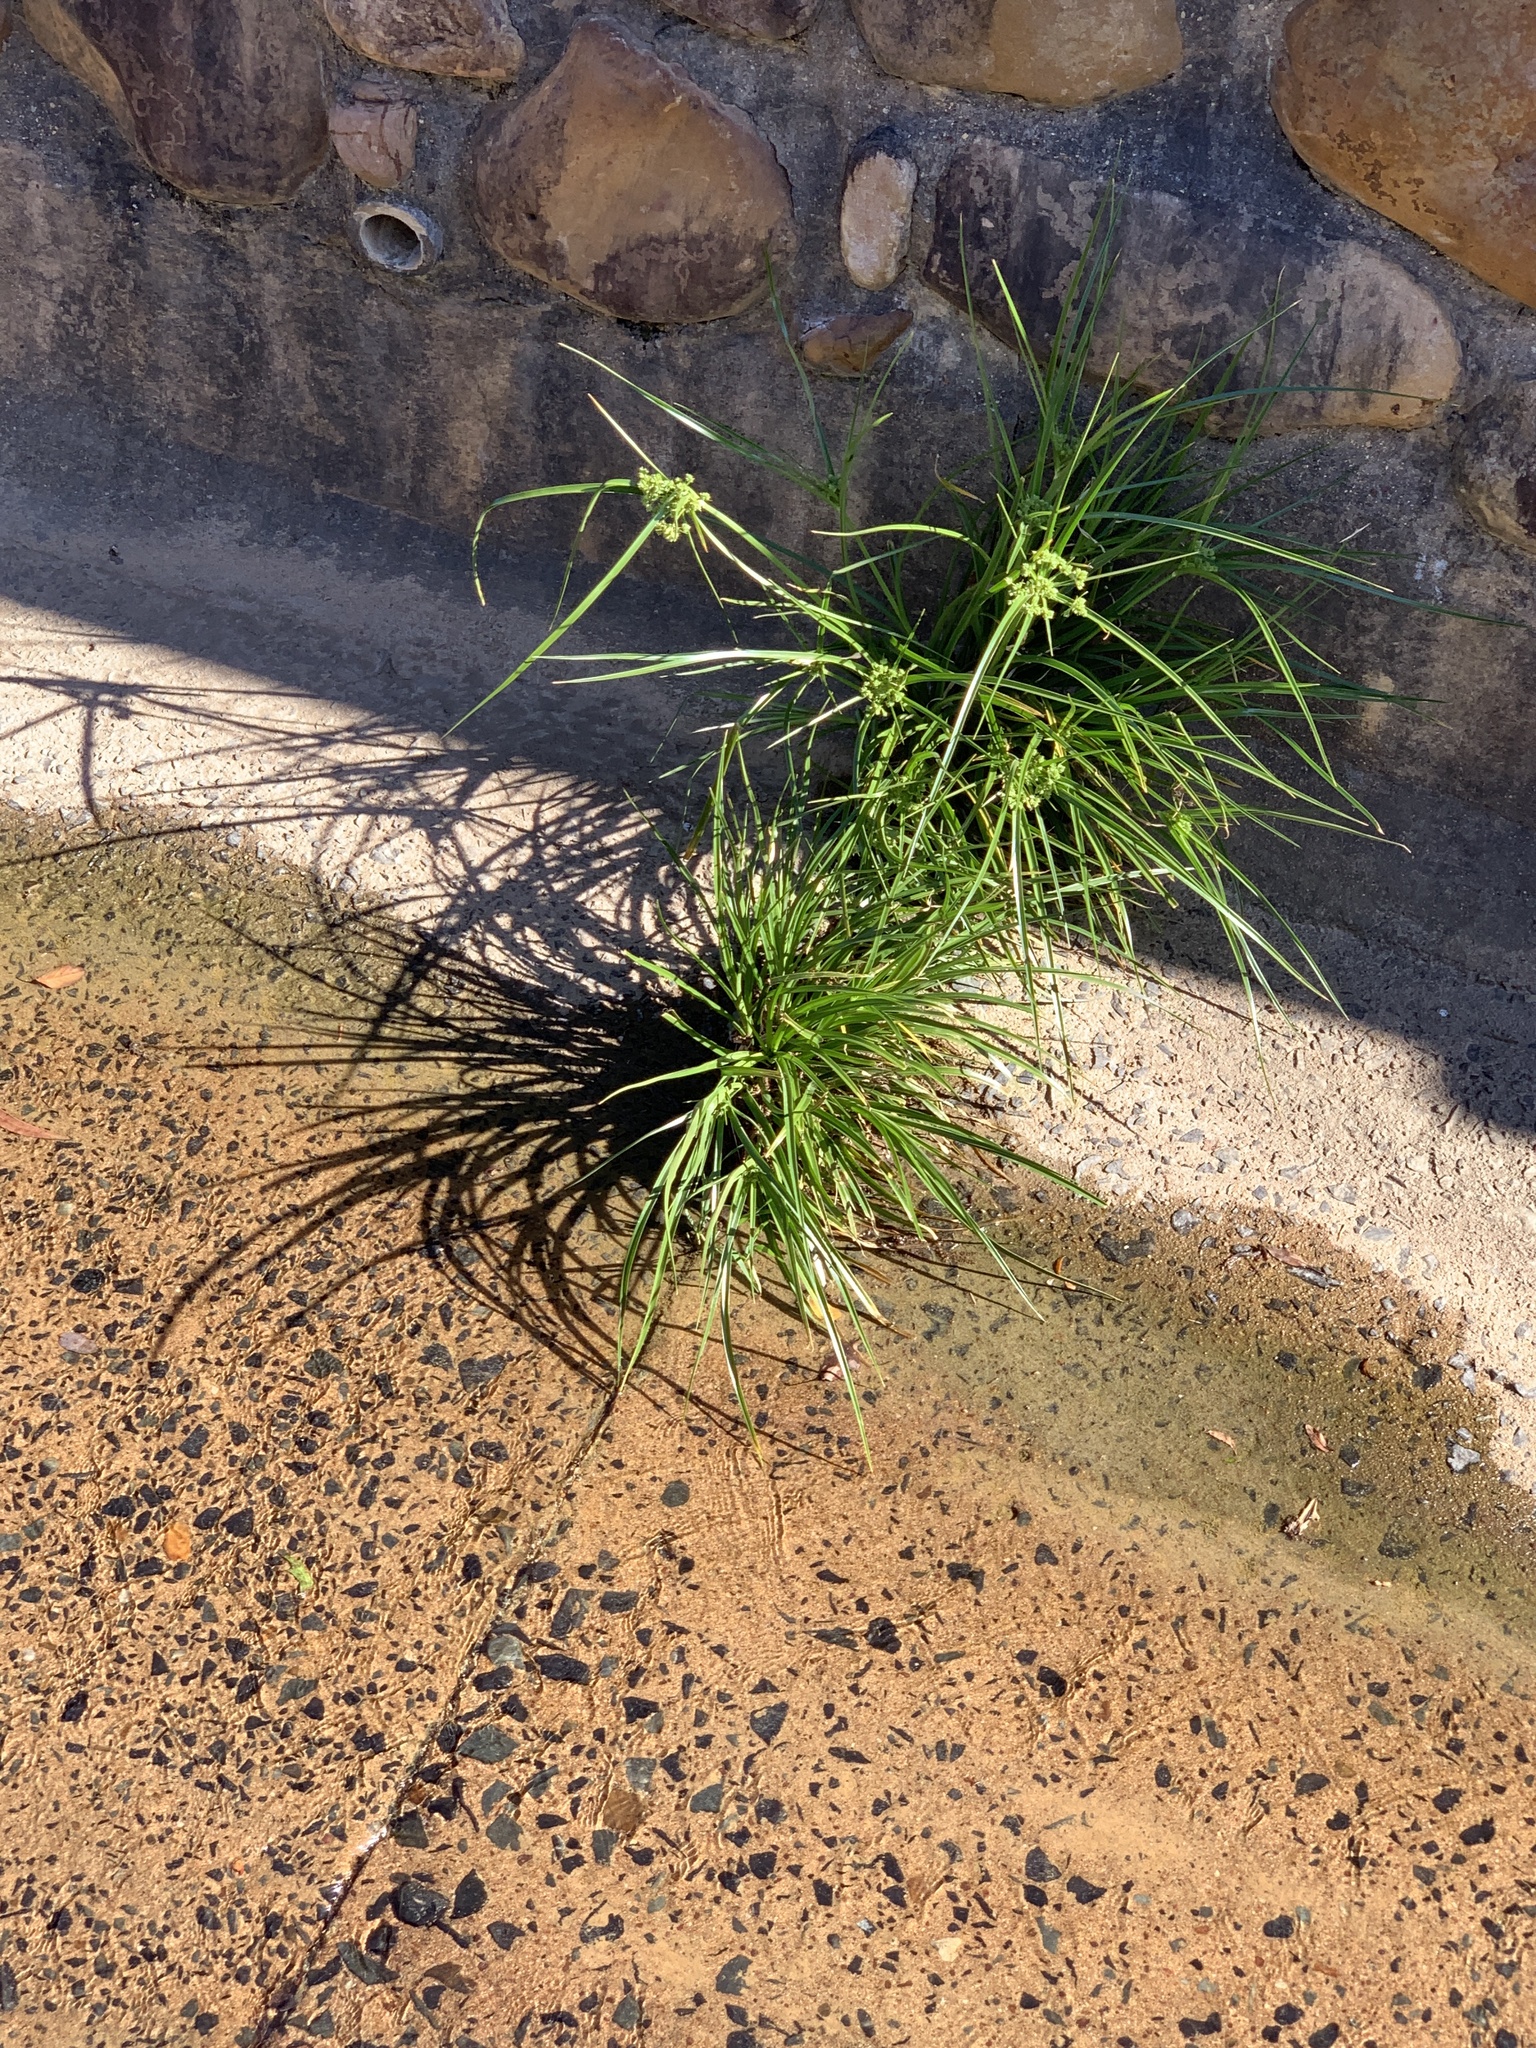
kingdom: Plantae
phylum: Tracheophyta
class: Liliopsida
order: Poales
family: Cyperaceae
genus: Cyperus
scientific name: Cyperus eragrostis
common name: Tall flatsedge
